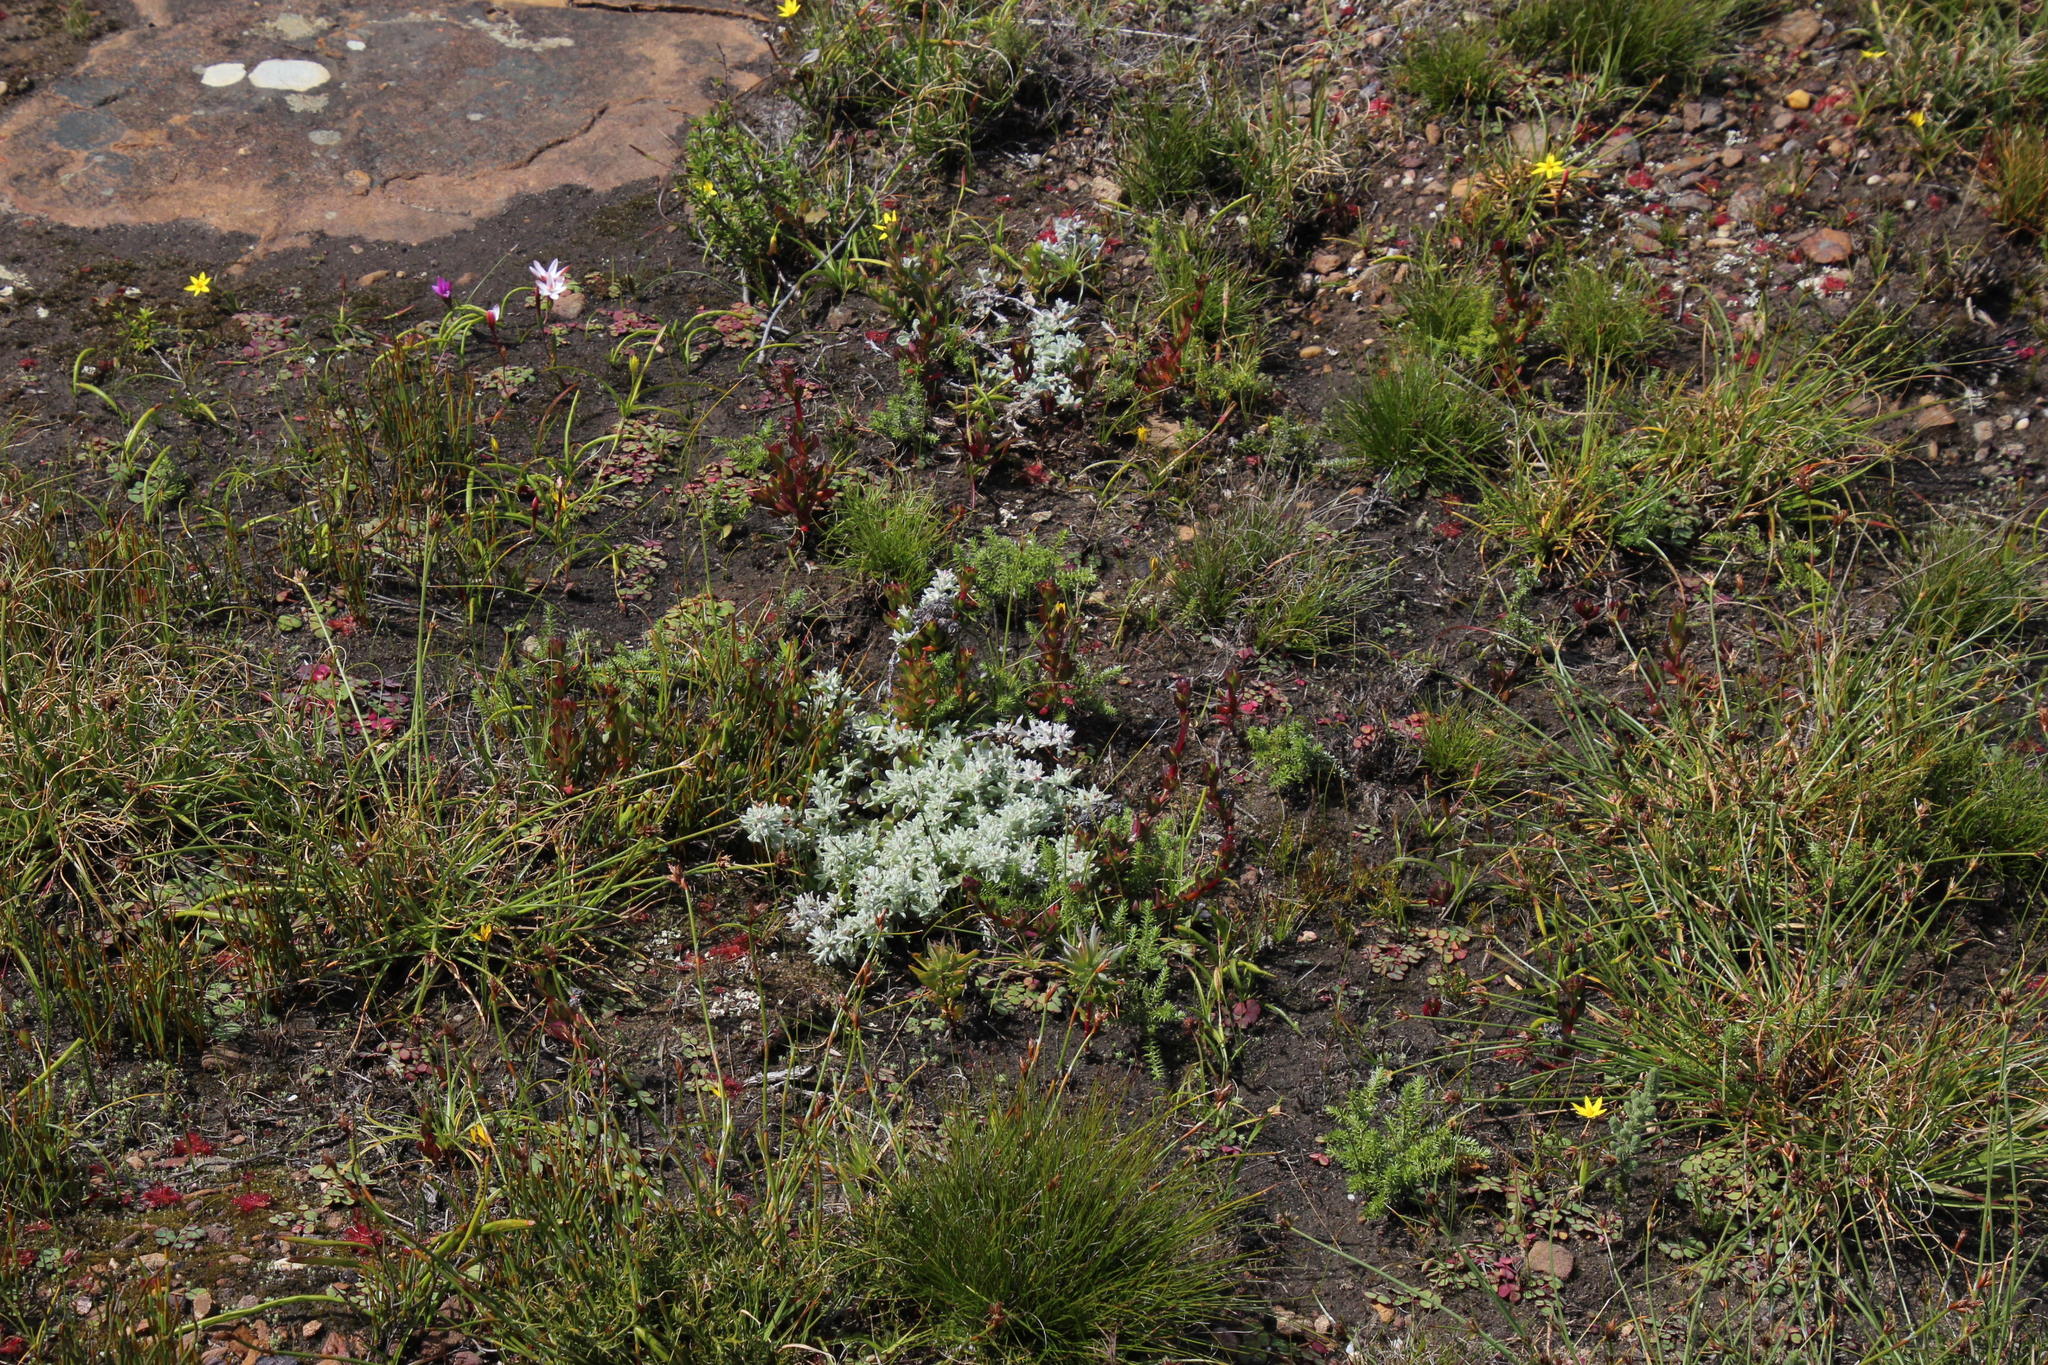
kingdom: Plantae
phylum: Tracheophyta
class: Magnoliopsida
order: Asterales
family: Asteraceae
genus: Printzia
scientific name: Printzia aromatica
